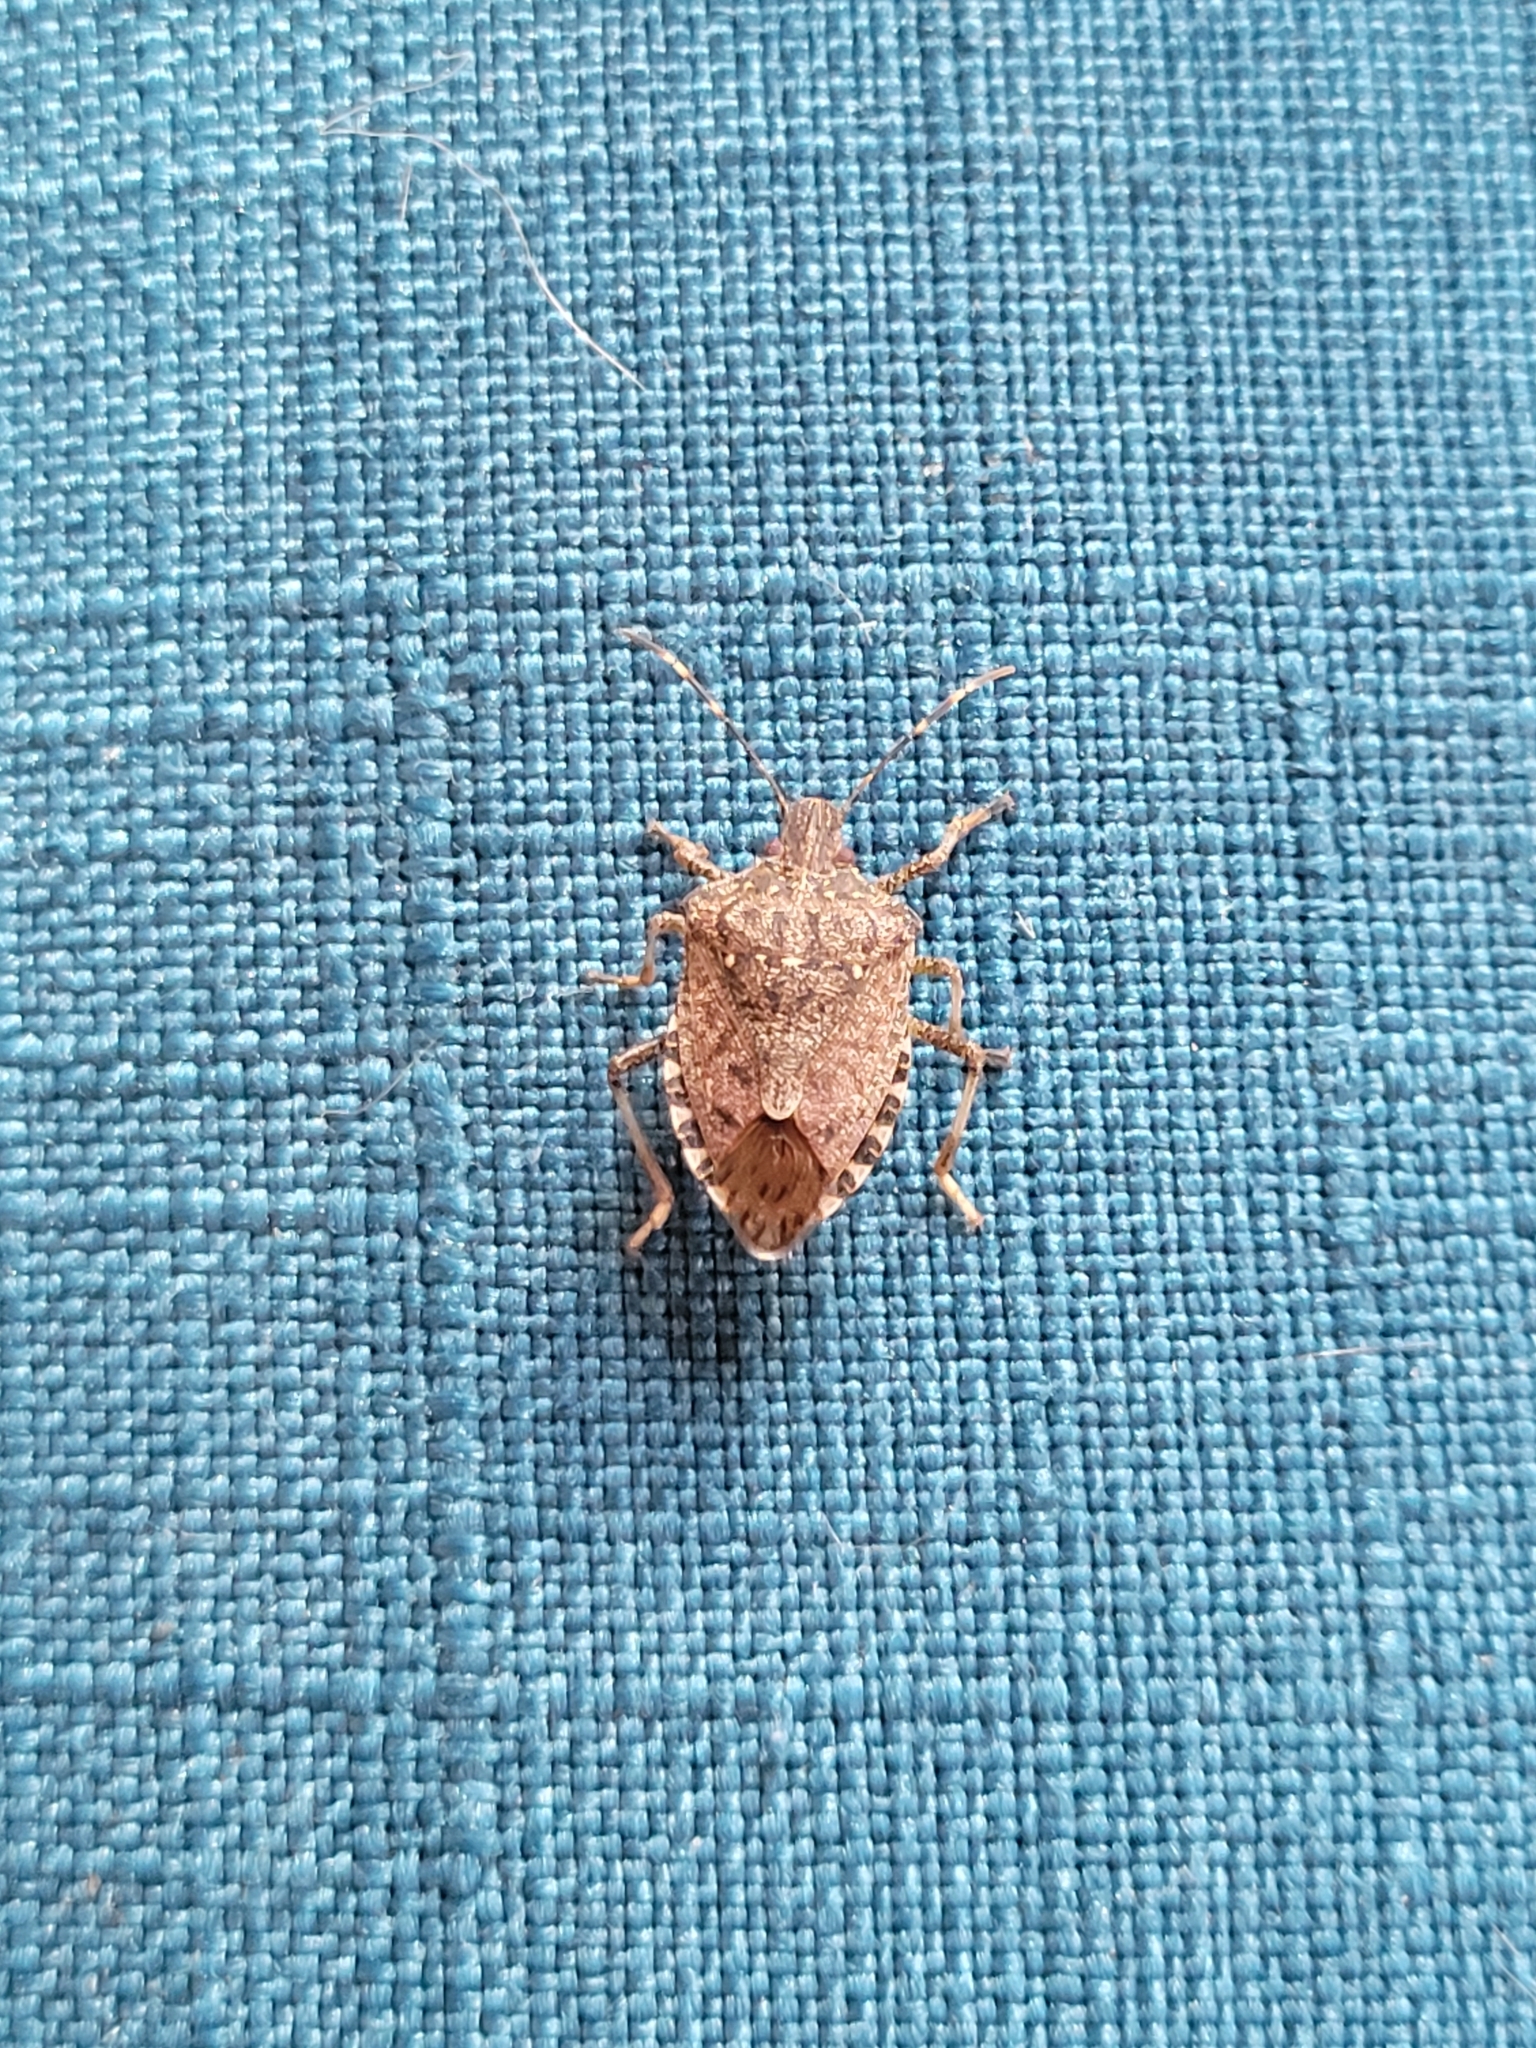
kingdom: Animalia
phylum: Arthropoda
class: Insecta
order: Hemiptera
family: Pentatomidae
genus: Halyomorpha
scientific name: Halyomorpha halys
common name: Brown marmorated stink bug
